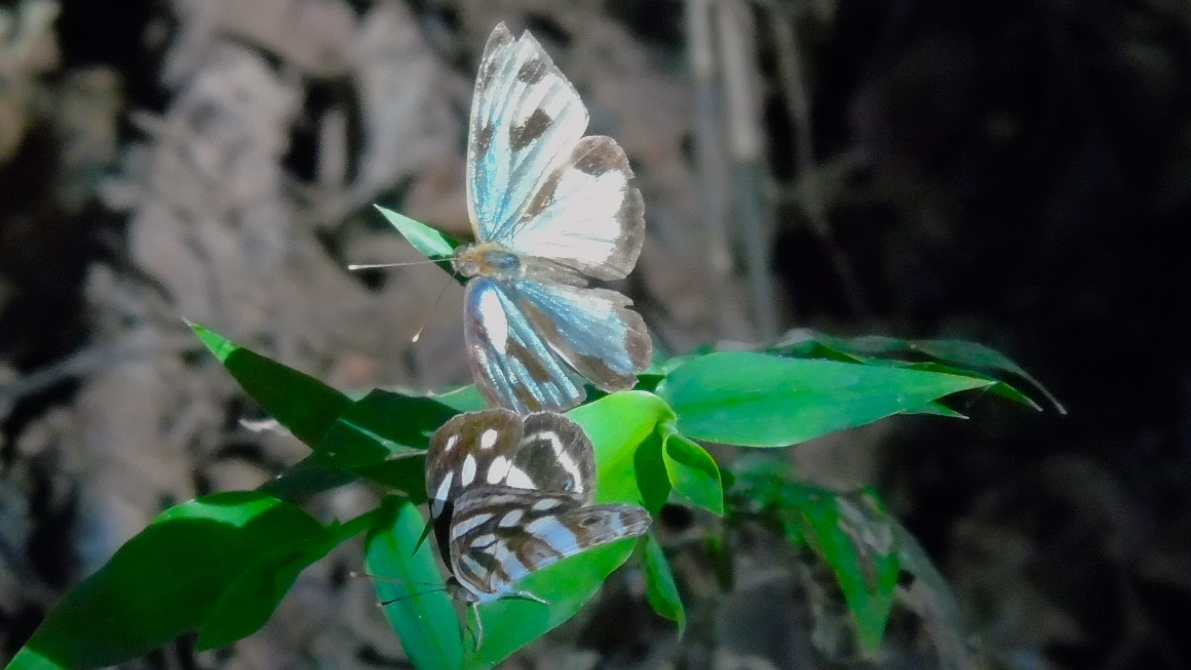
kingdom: Animalia
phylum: Arthropoda
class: Insecta
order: Lepidoptera
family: Nymphalidae
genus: Dynamine
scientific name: Dynamine mylitta
